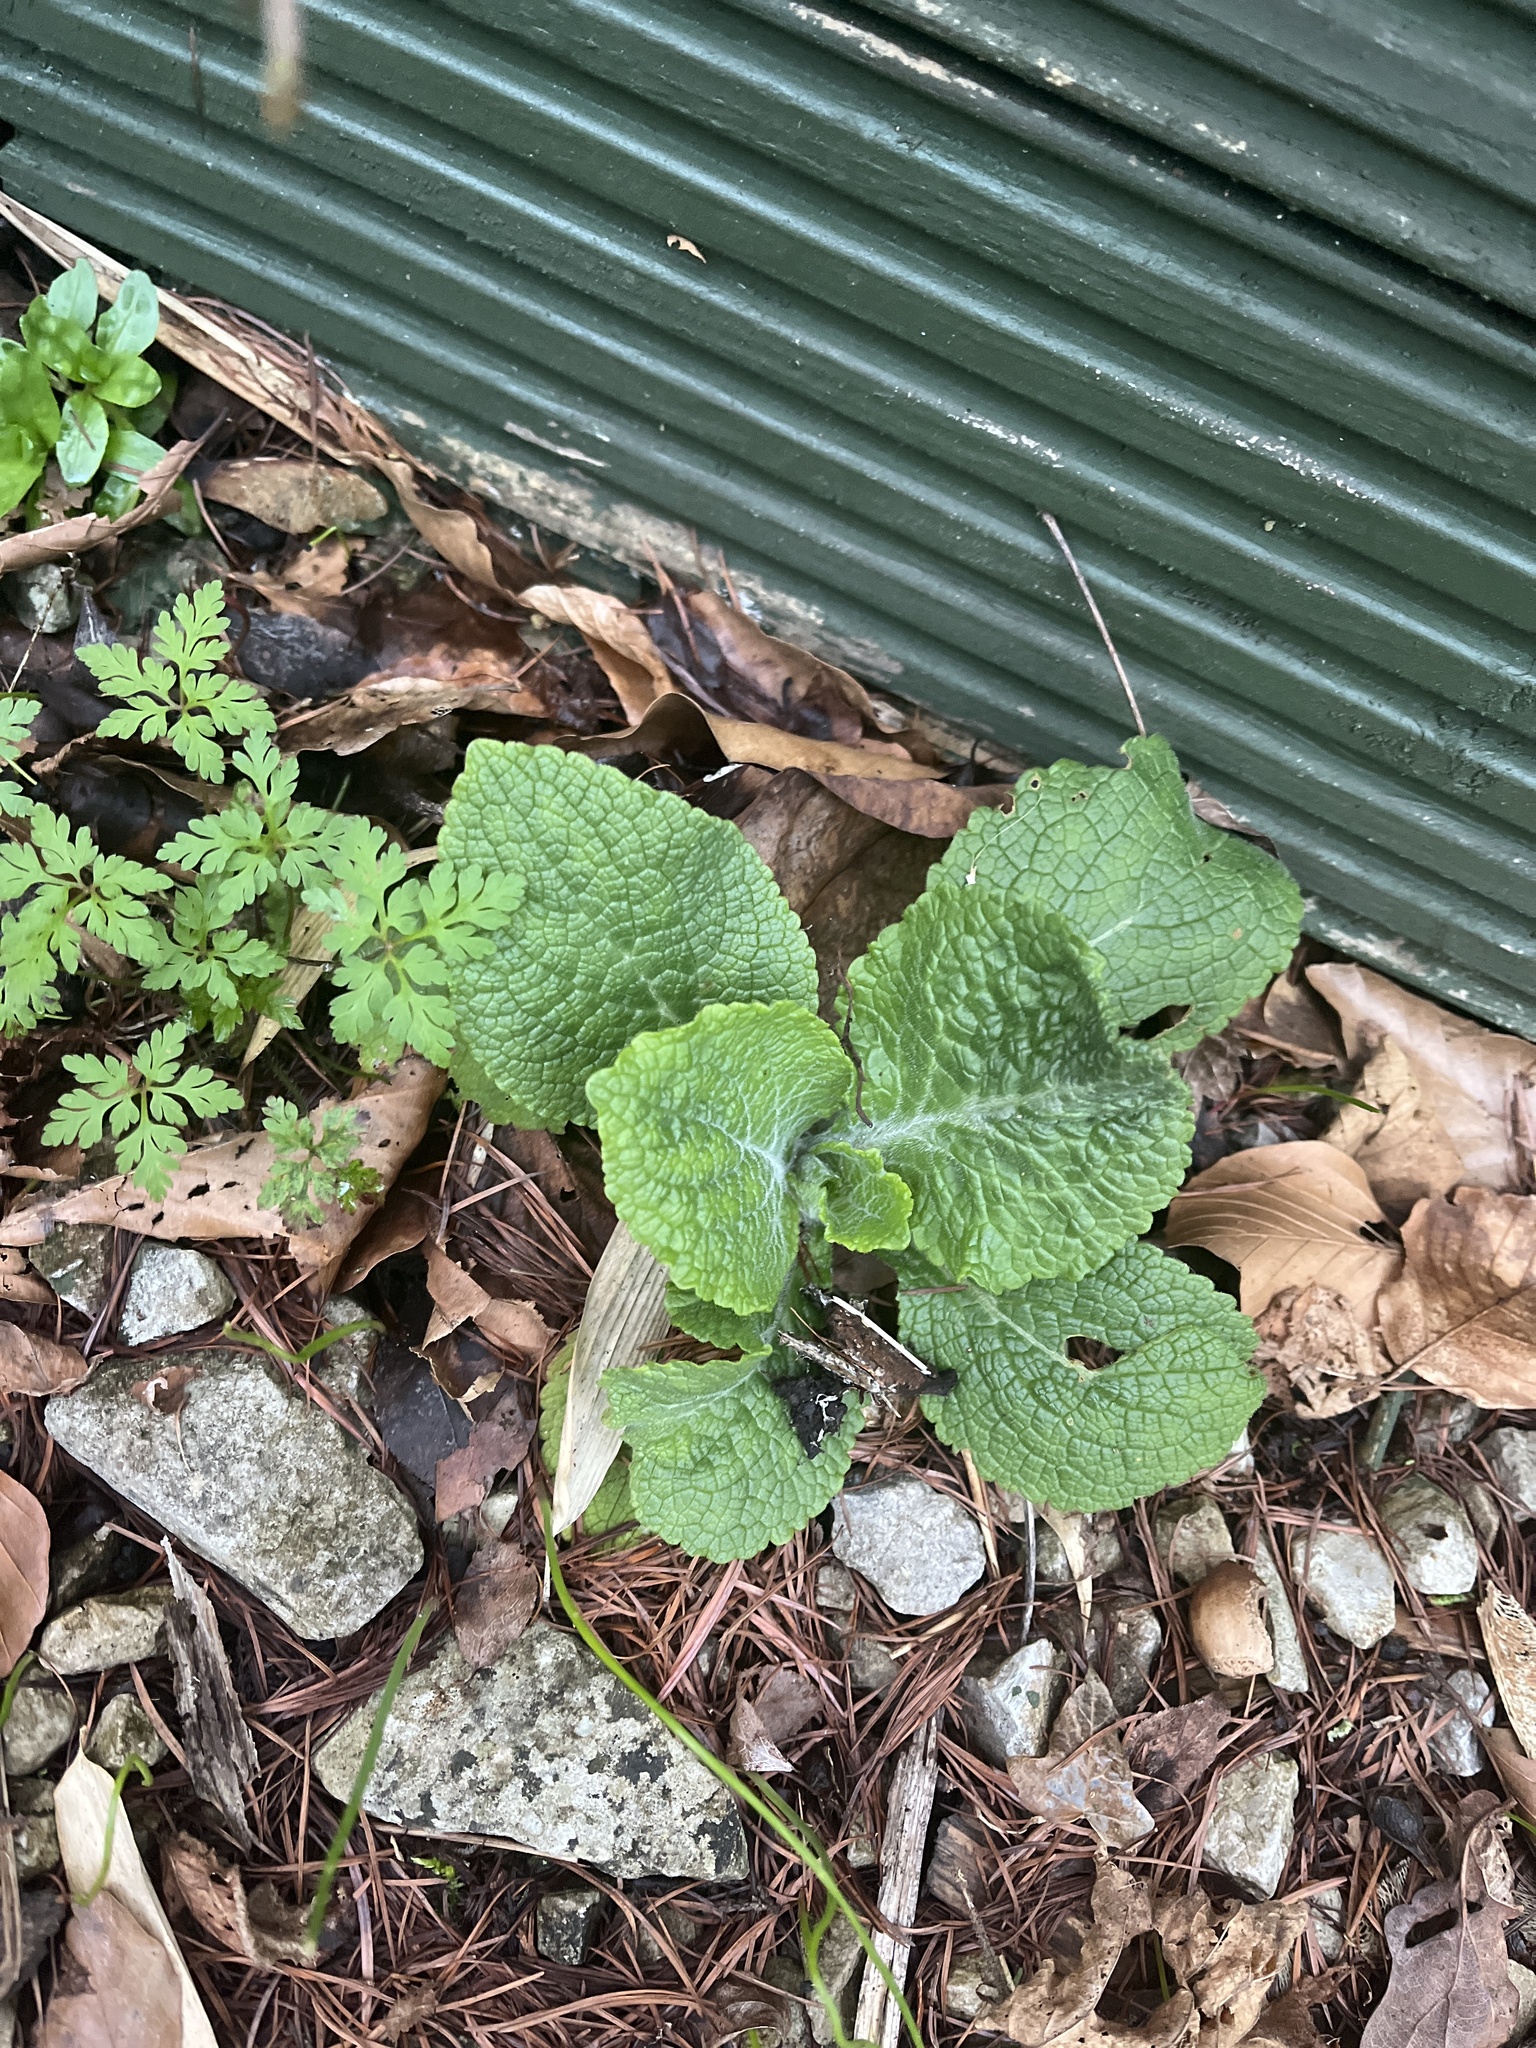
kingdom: Plantae
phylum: Tracheophyta
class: Magnoliopsida
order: Lamiales
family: Plantaginaceae
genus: Digitalis
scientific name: Digitalis purpurea
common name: Foxglove
